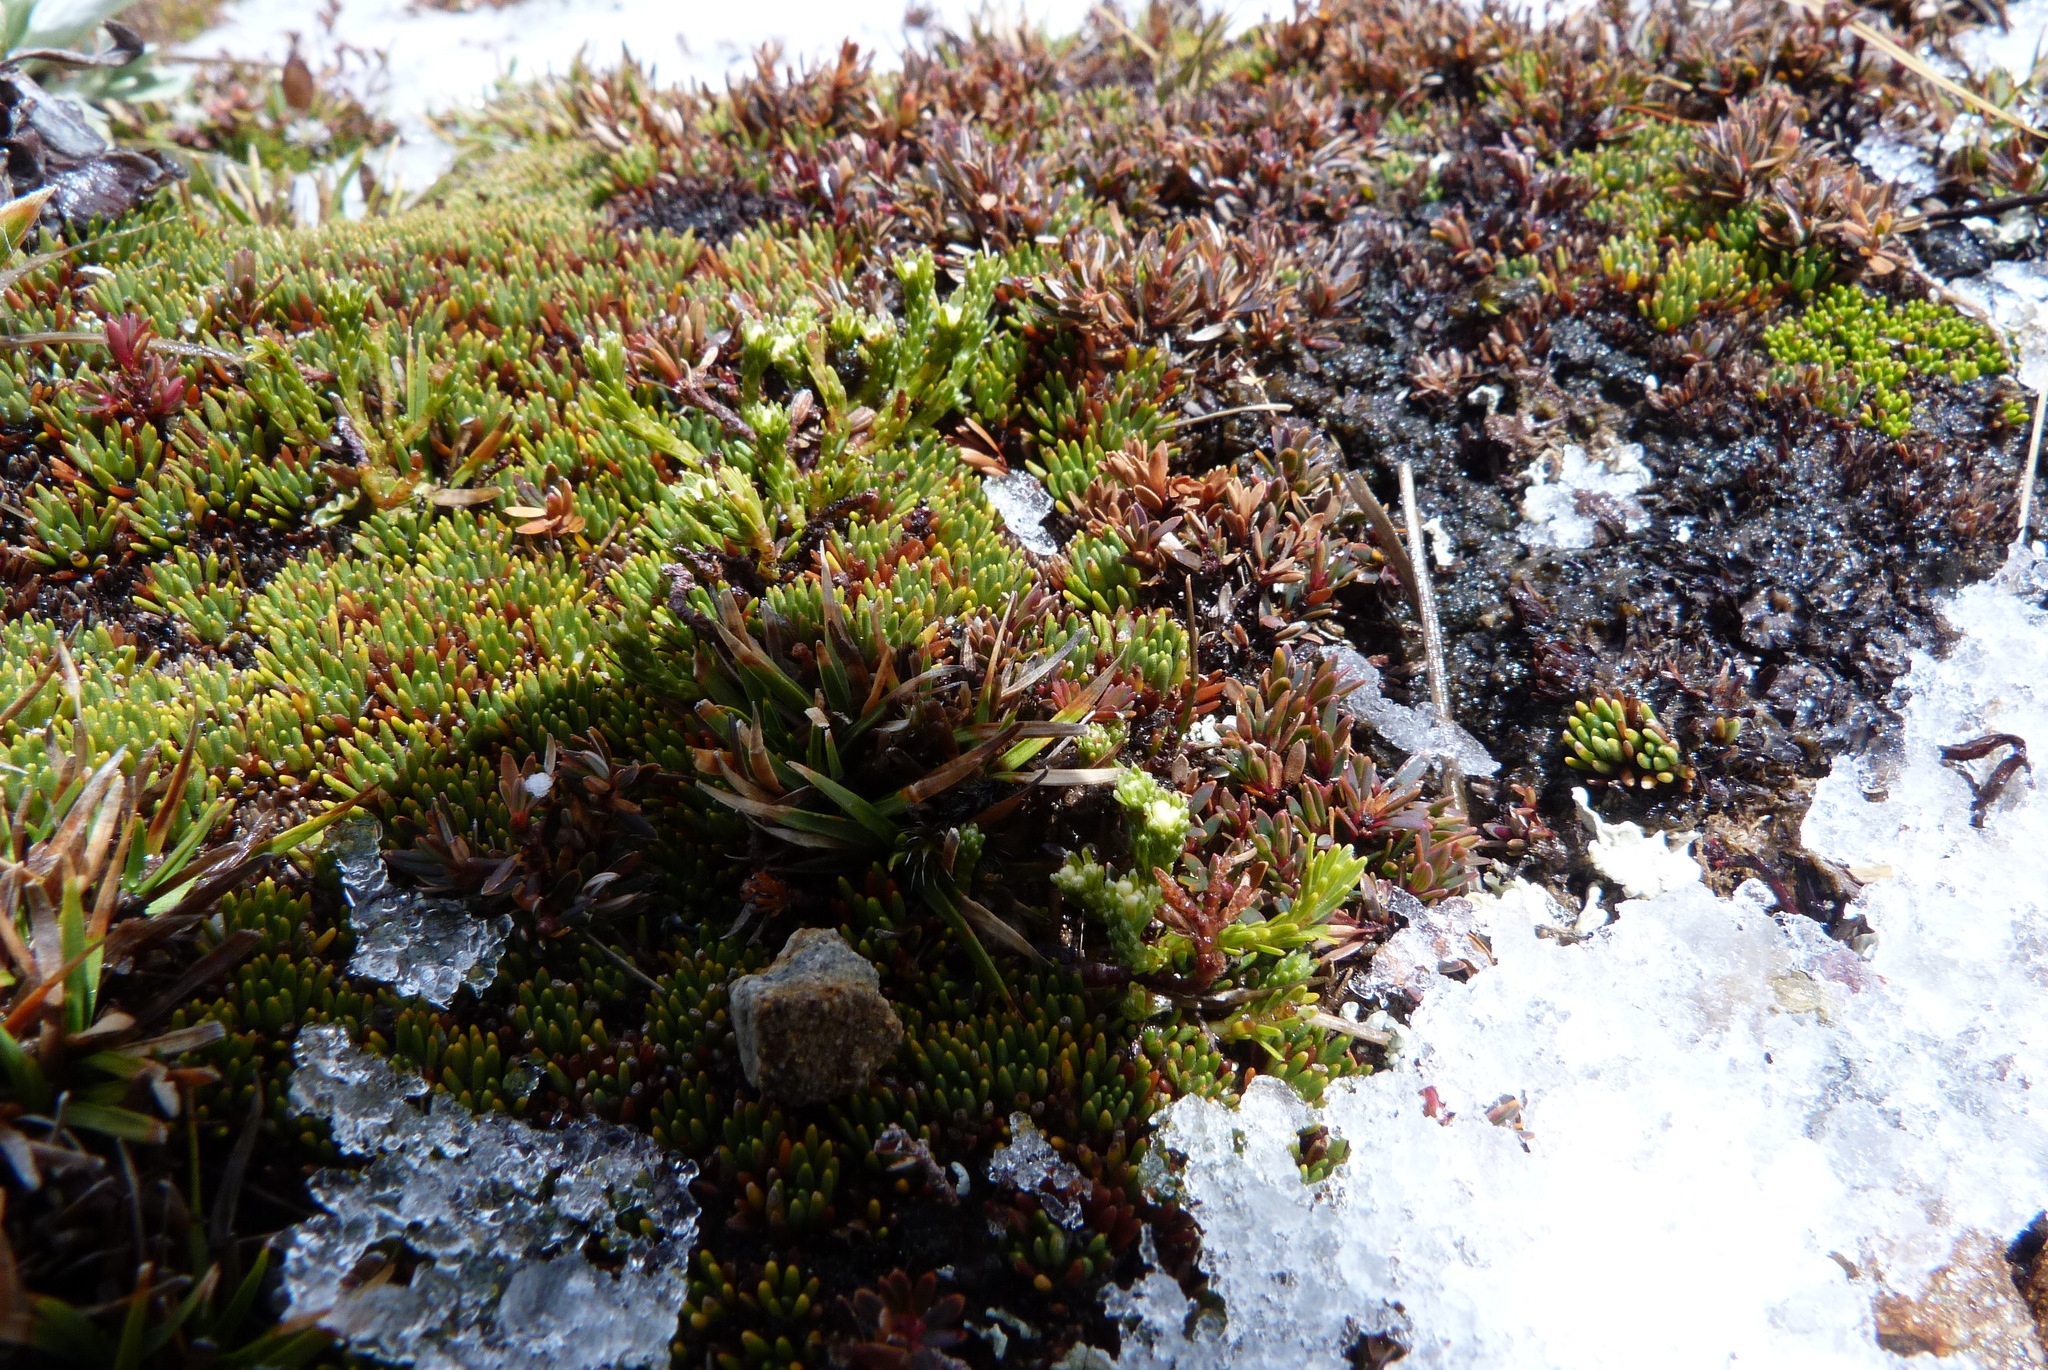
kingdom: Plantae
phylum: Tracheophyta
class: Magnoliopsida
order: Asterales
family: Stylidiaceae
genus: Donatia
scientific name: Donatia novae-zelandiae
